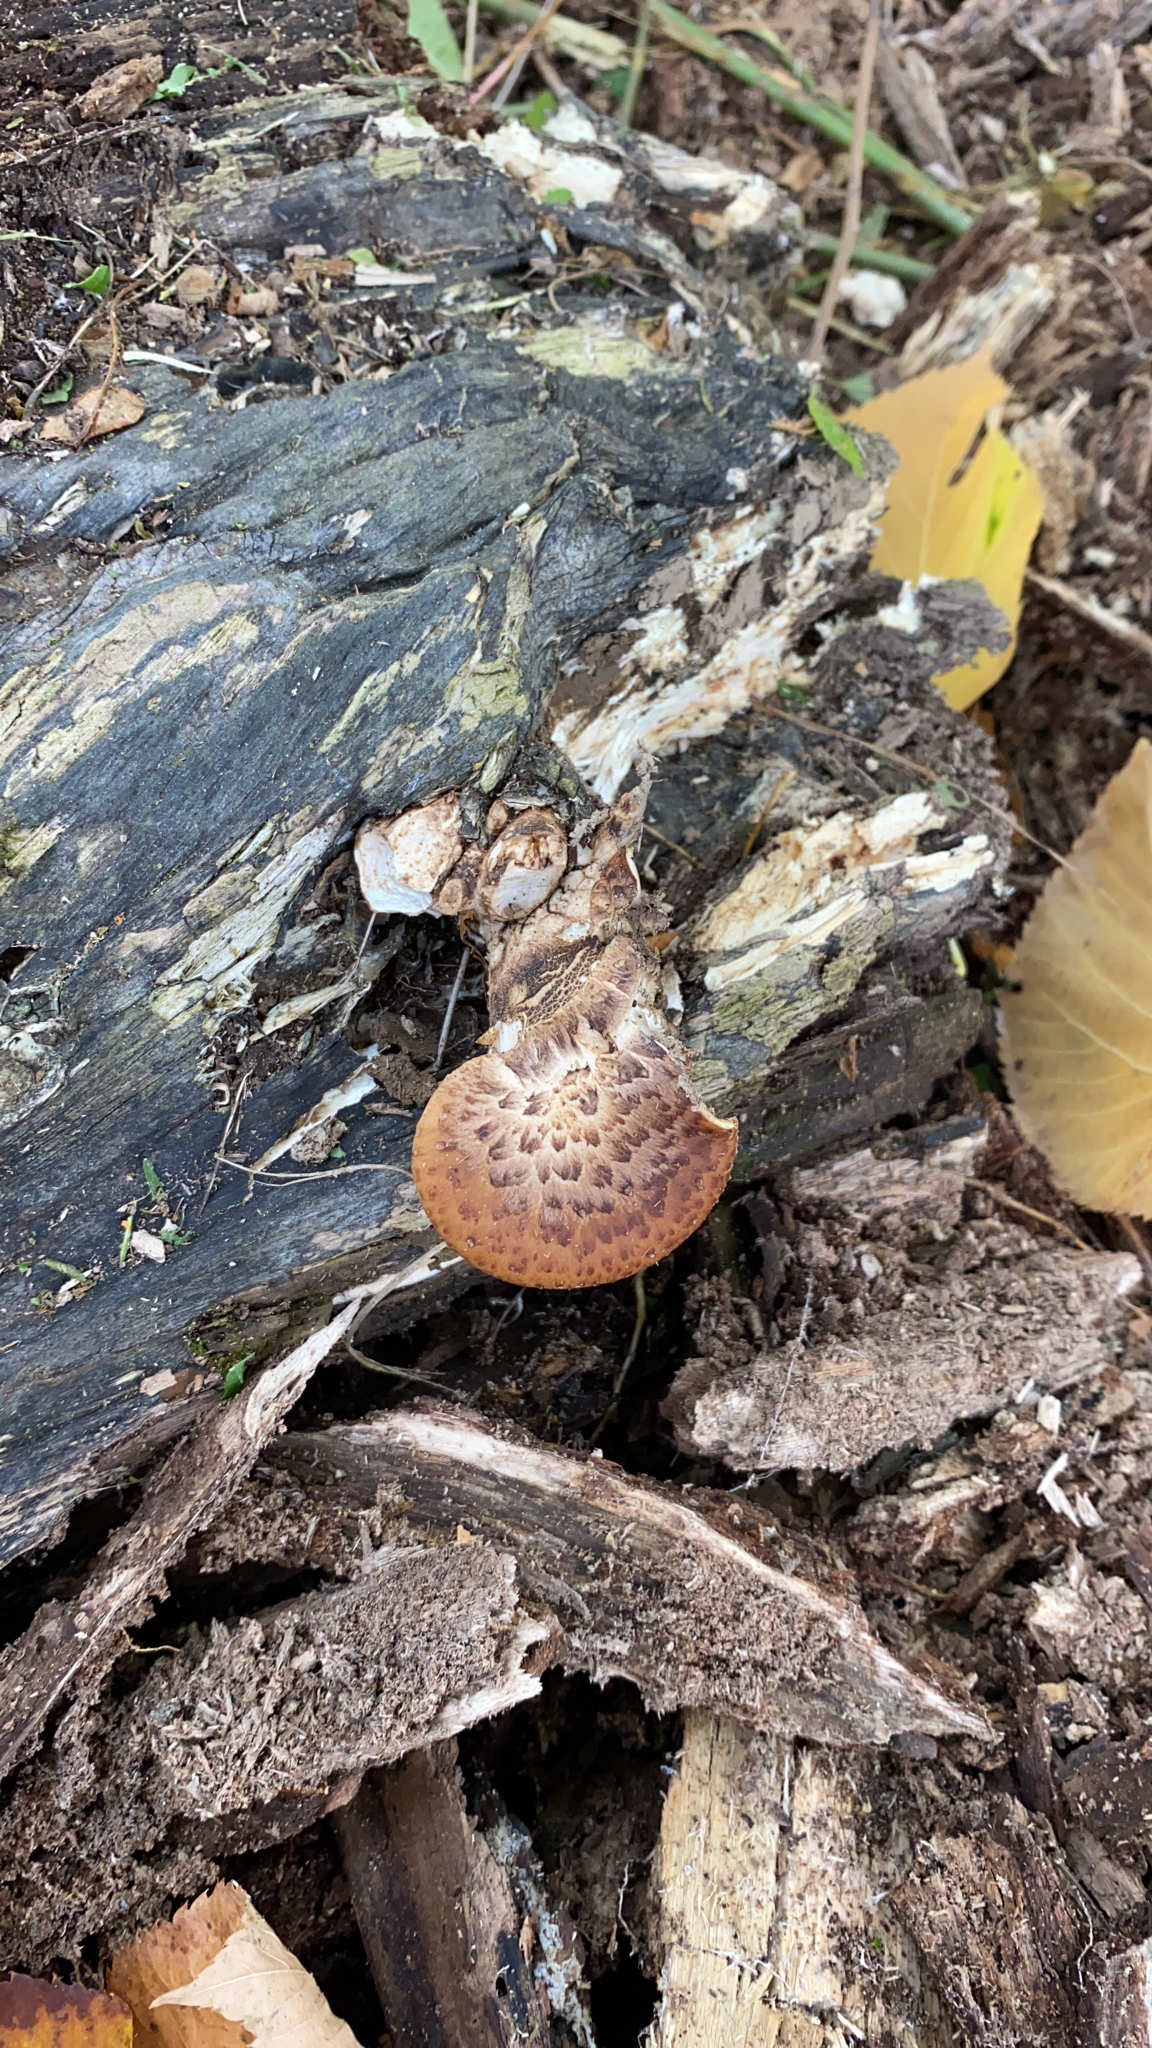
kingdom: Fungi
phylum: Basidiomycota
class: Agaricomycetes
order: Polyporales
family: Polyporaceae
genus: Cerioporus
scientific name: Cerioporus squamosus
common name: Dryad's saddle
